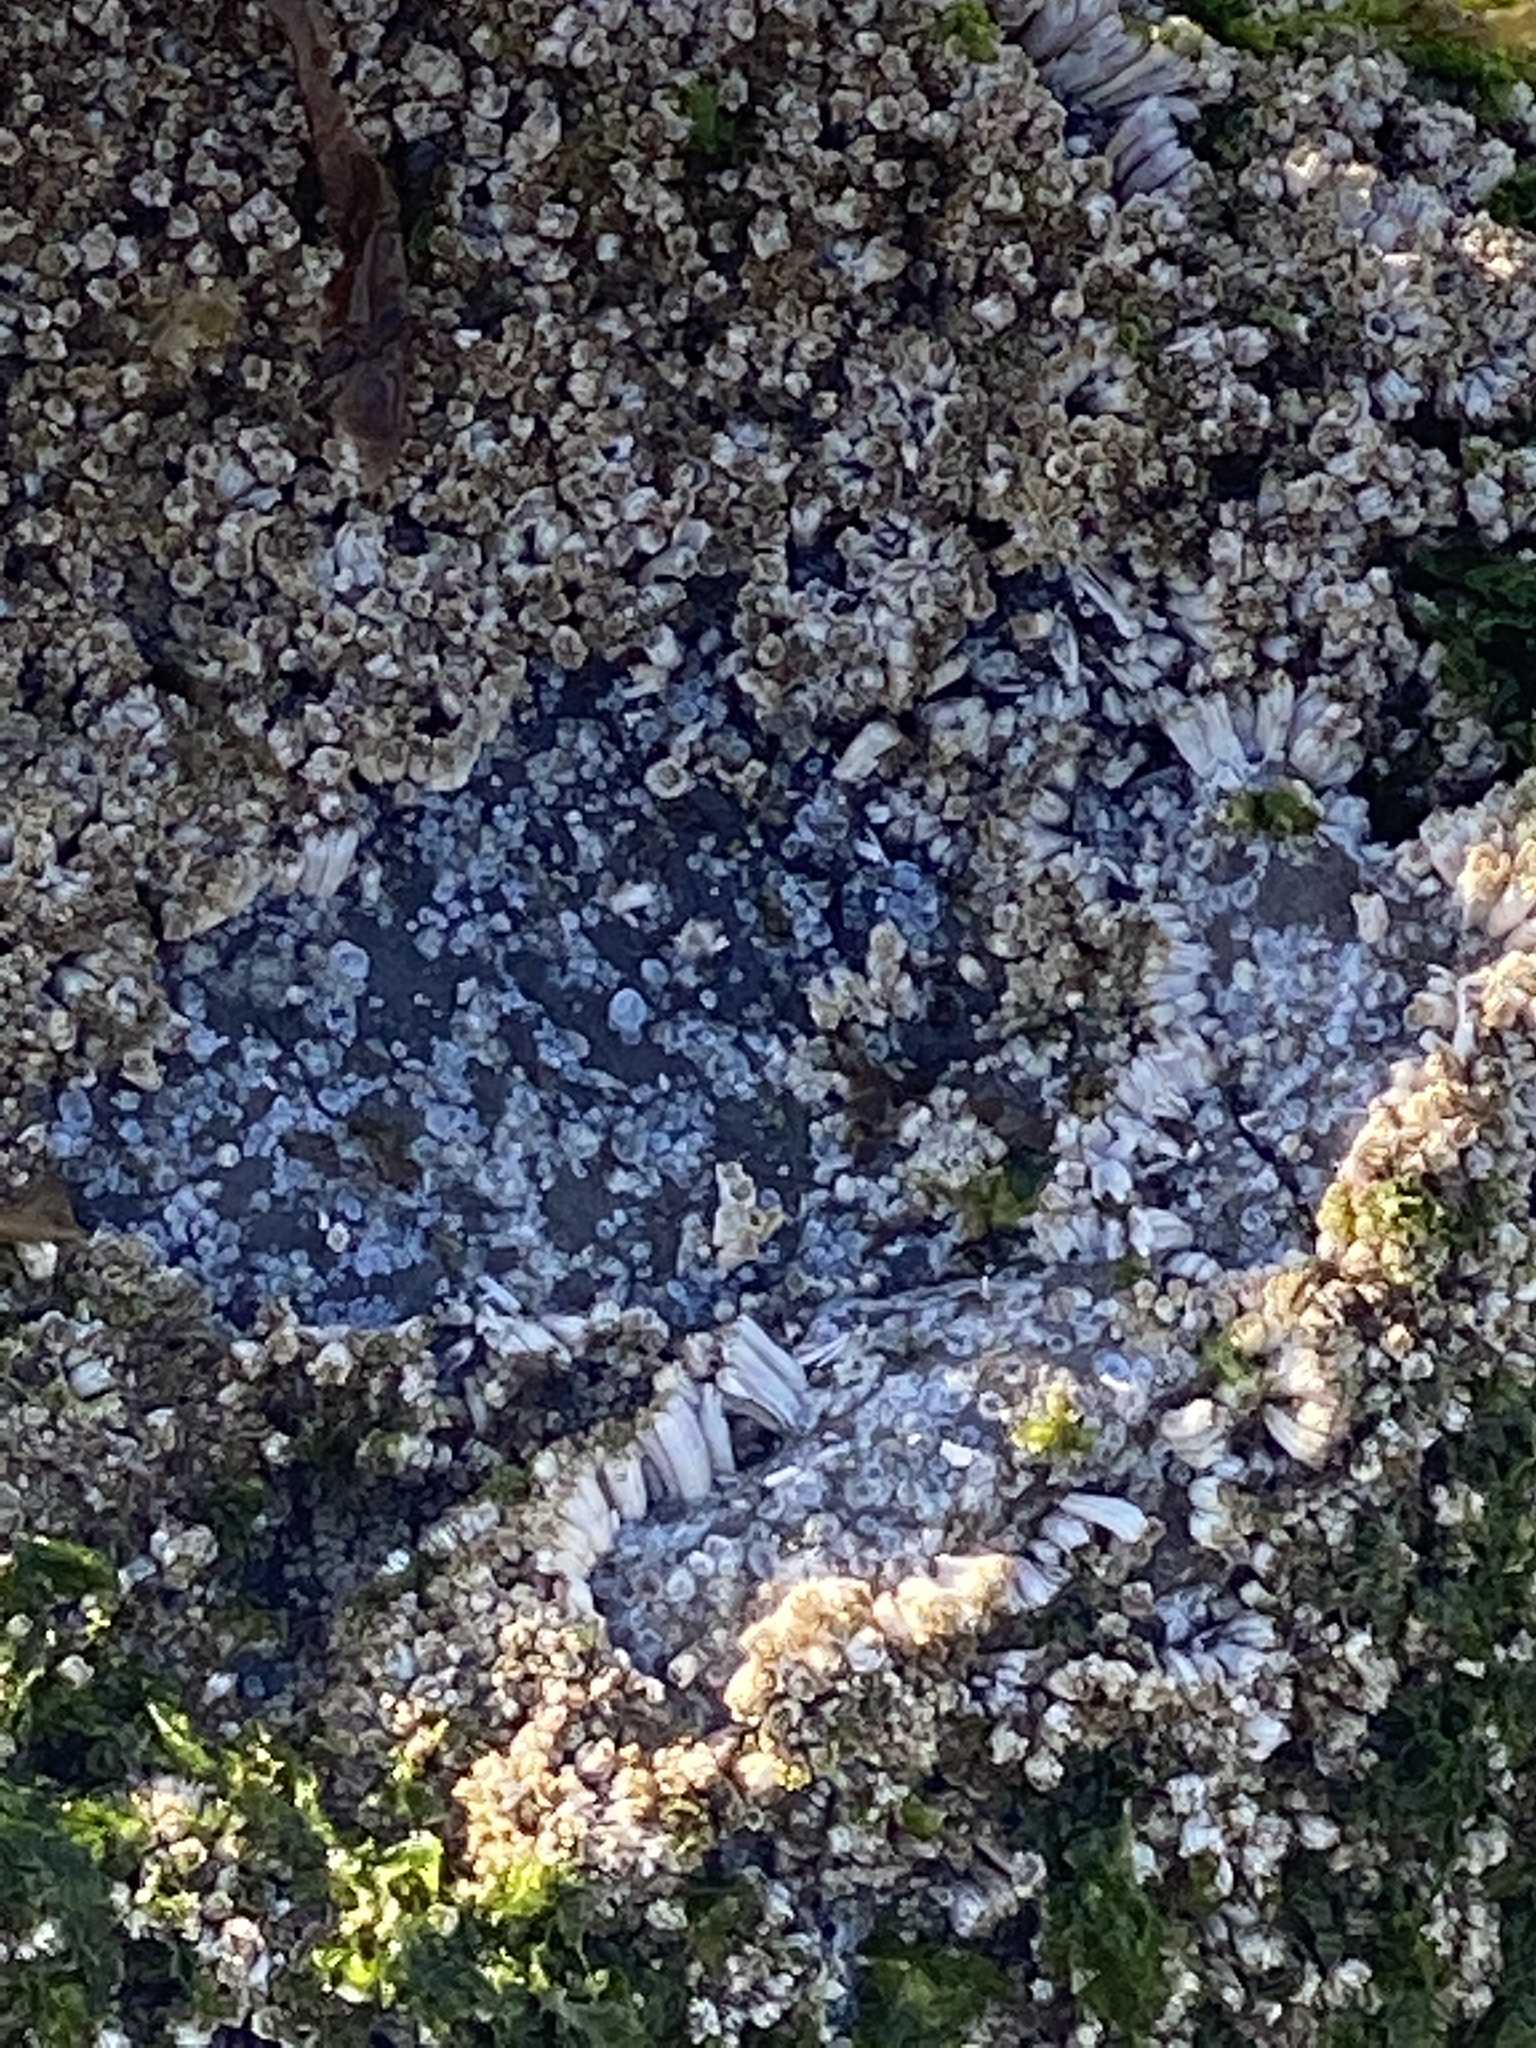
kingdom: Animalia
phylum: Arthropoda
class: Maxillopoda
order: Sessilia
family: Balanidae
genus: Balanus
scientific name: Balanus glandula
